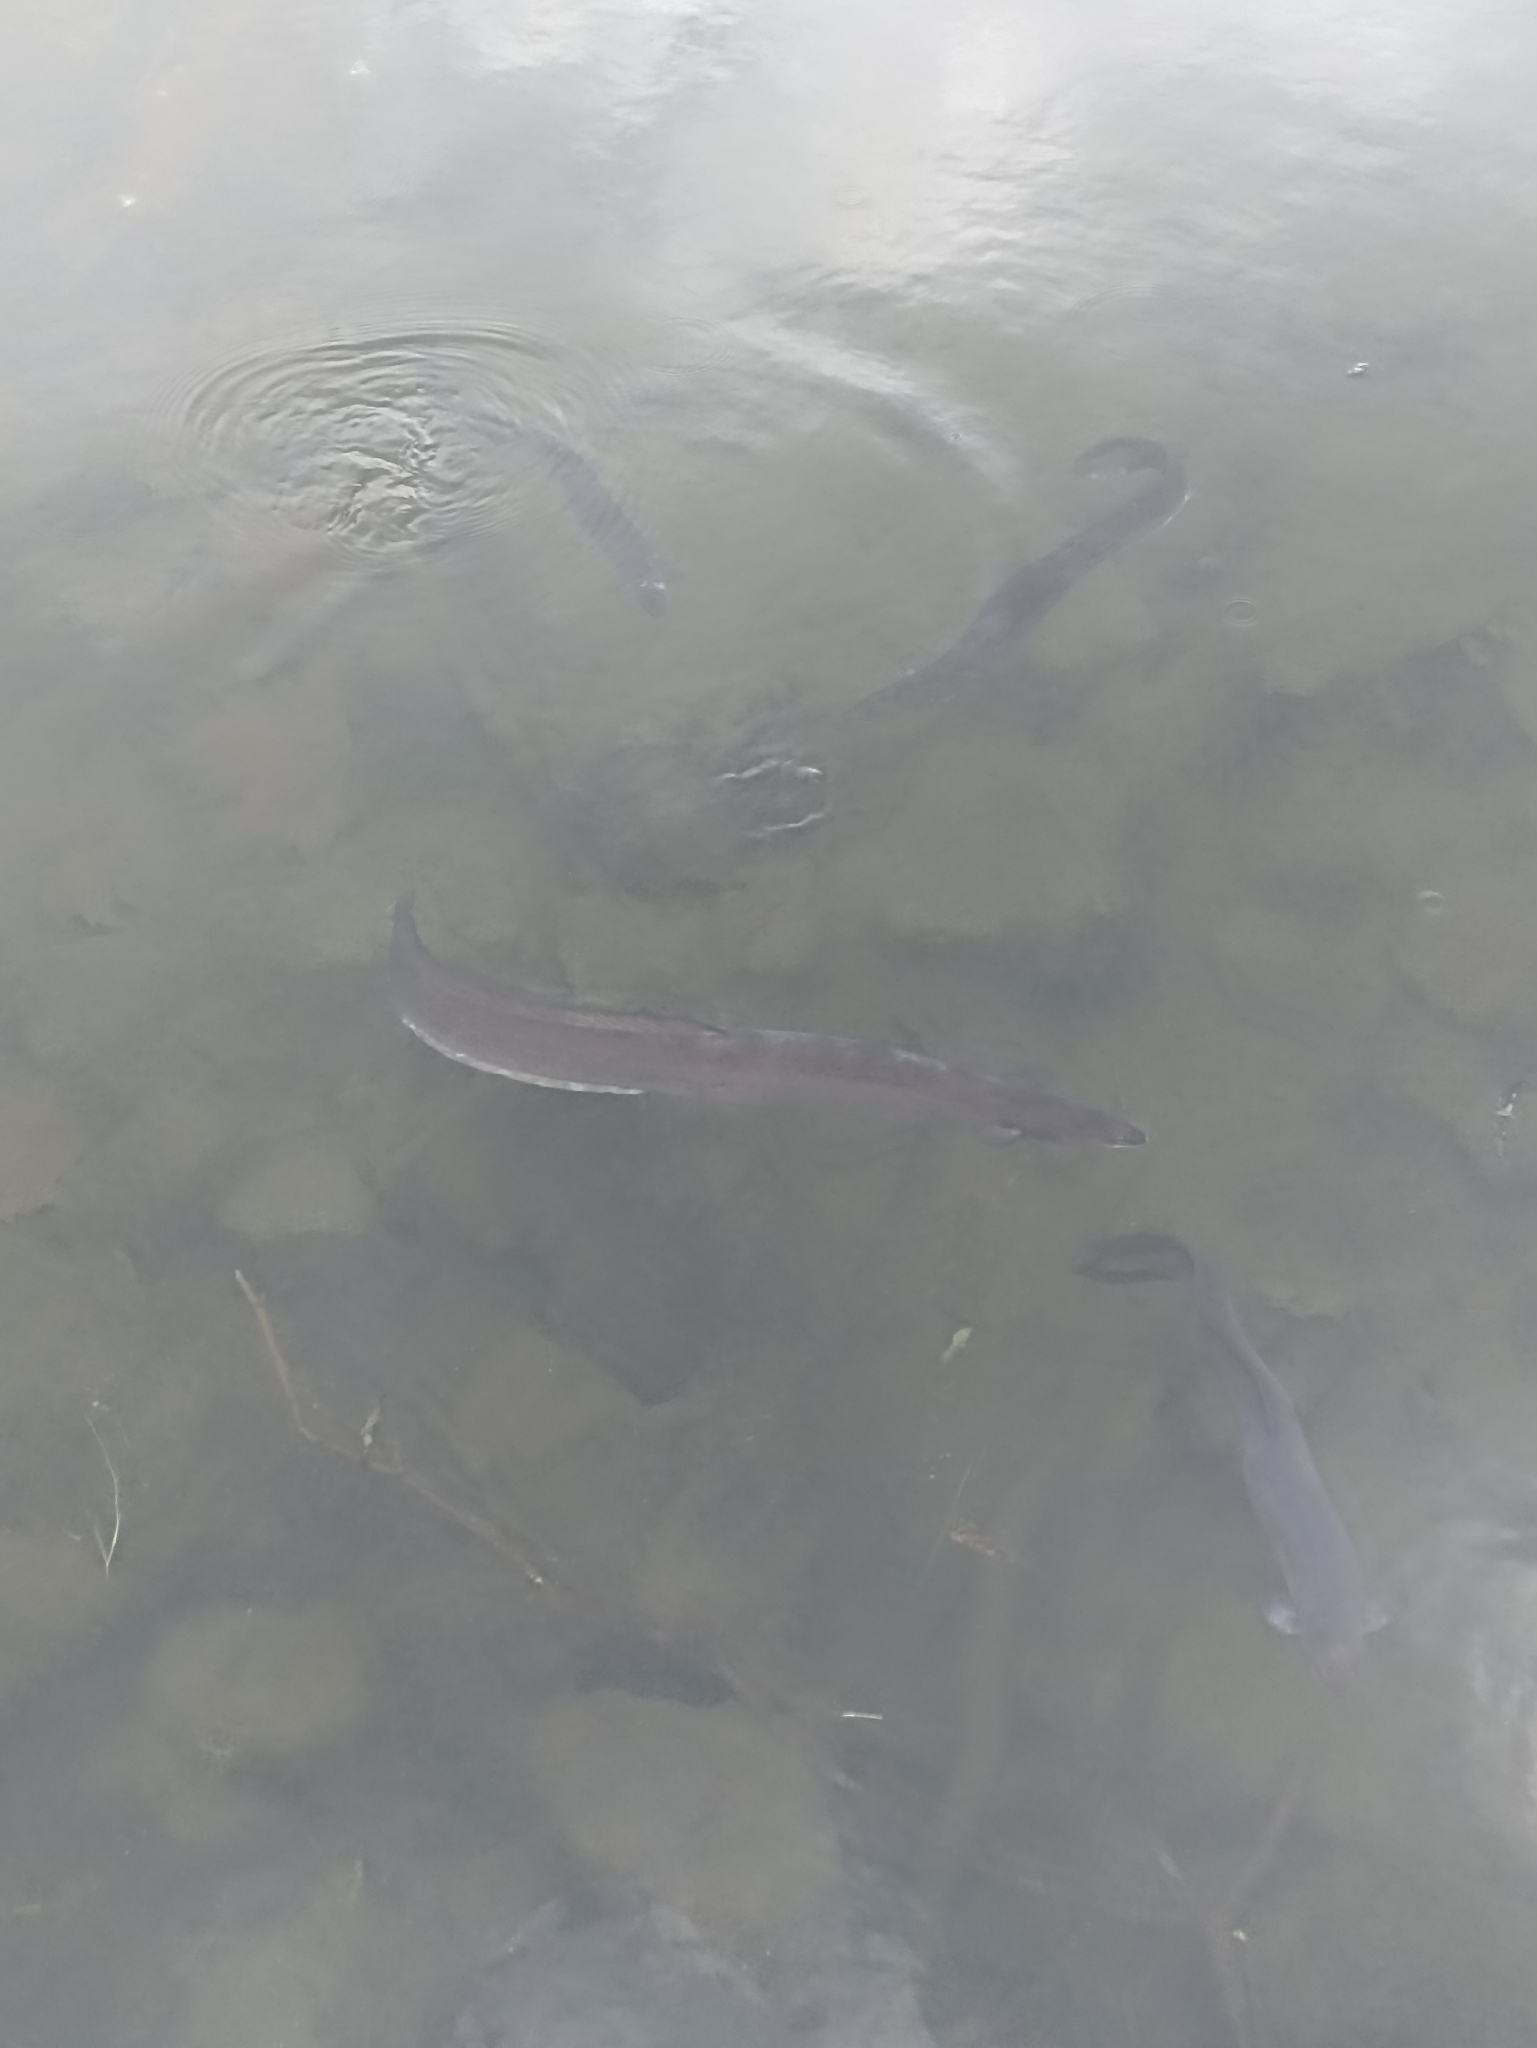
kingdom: Animalia
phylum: Chordata
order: Anguilliformes
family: Anguillidae
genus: Anguilla
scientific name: Anguilla australis
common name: Shortfin eel
